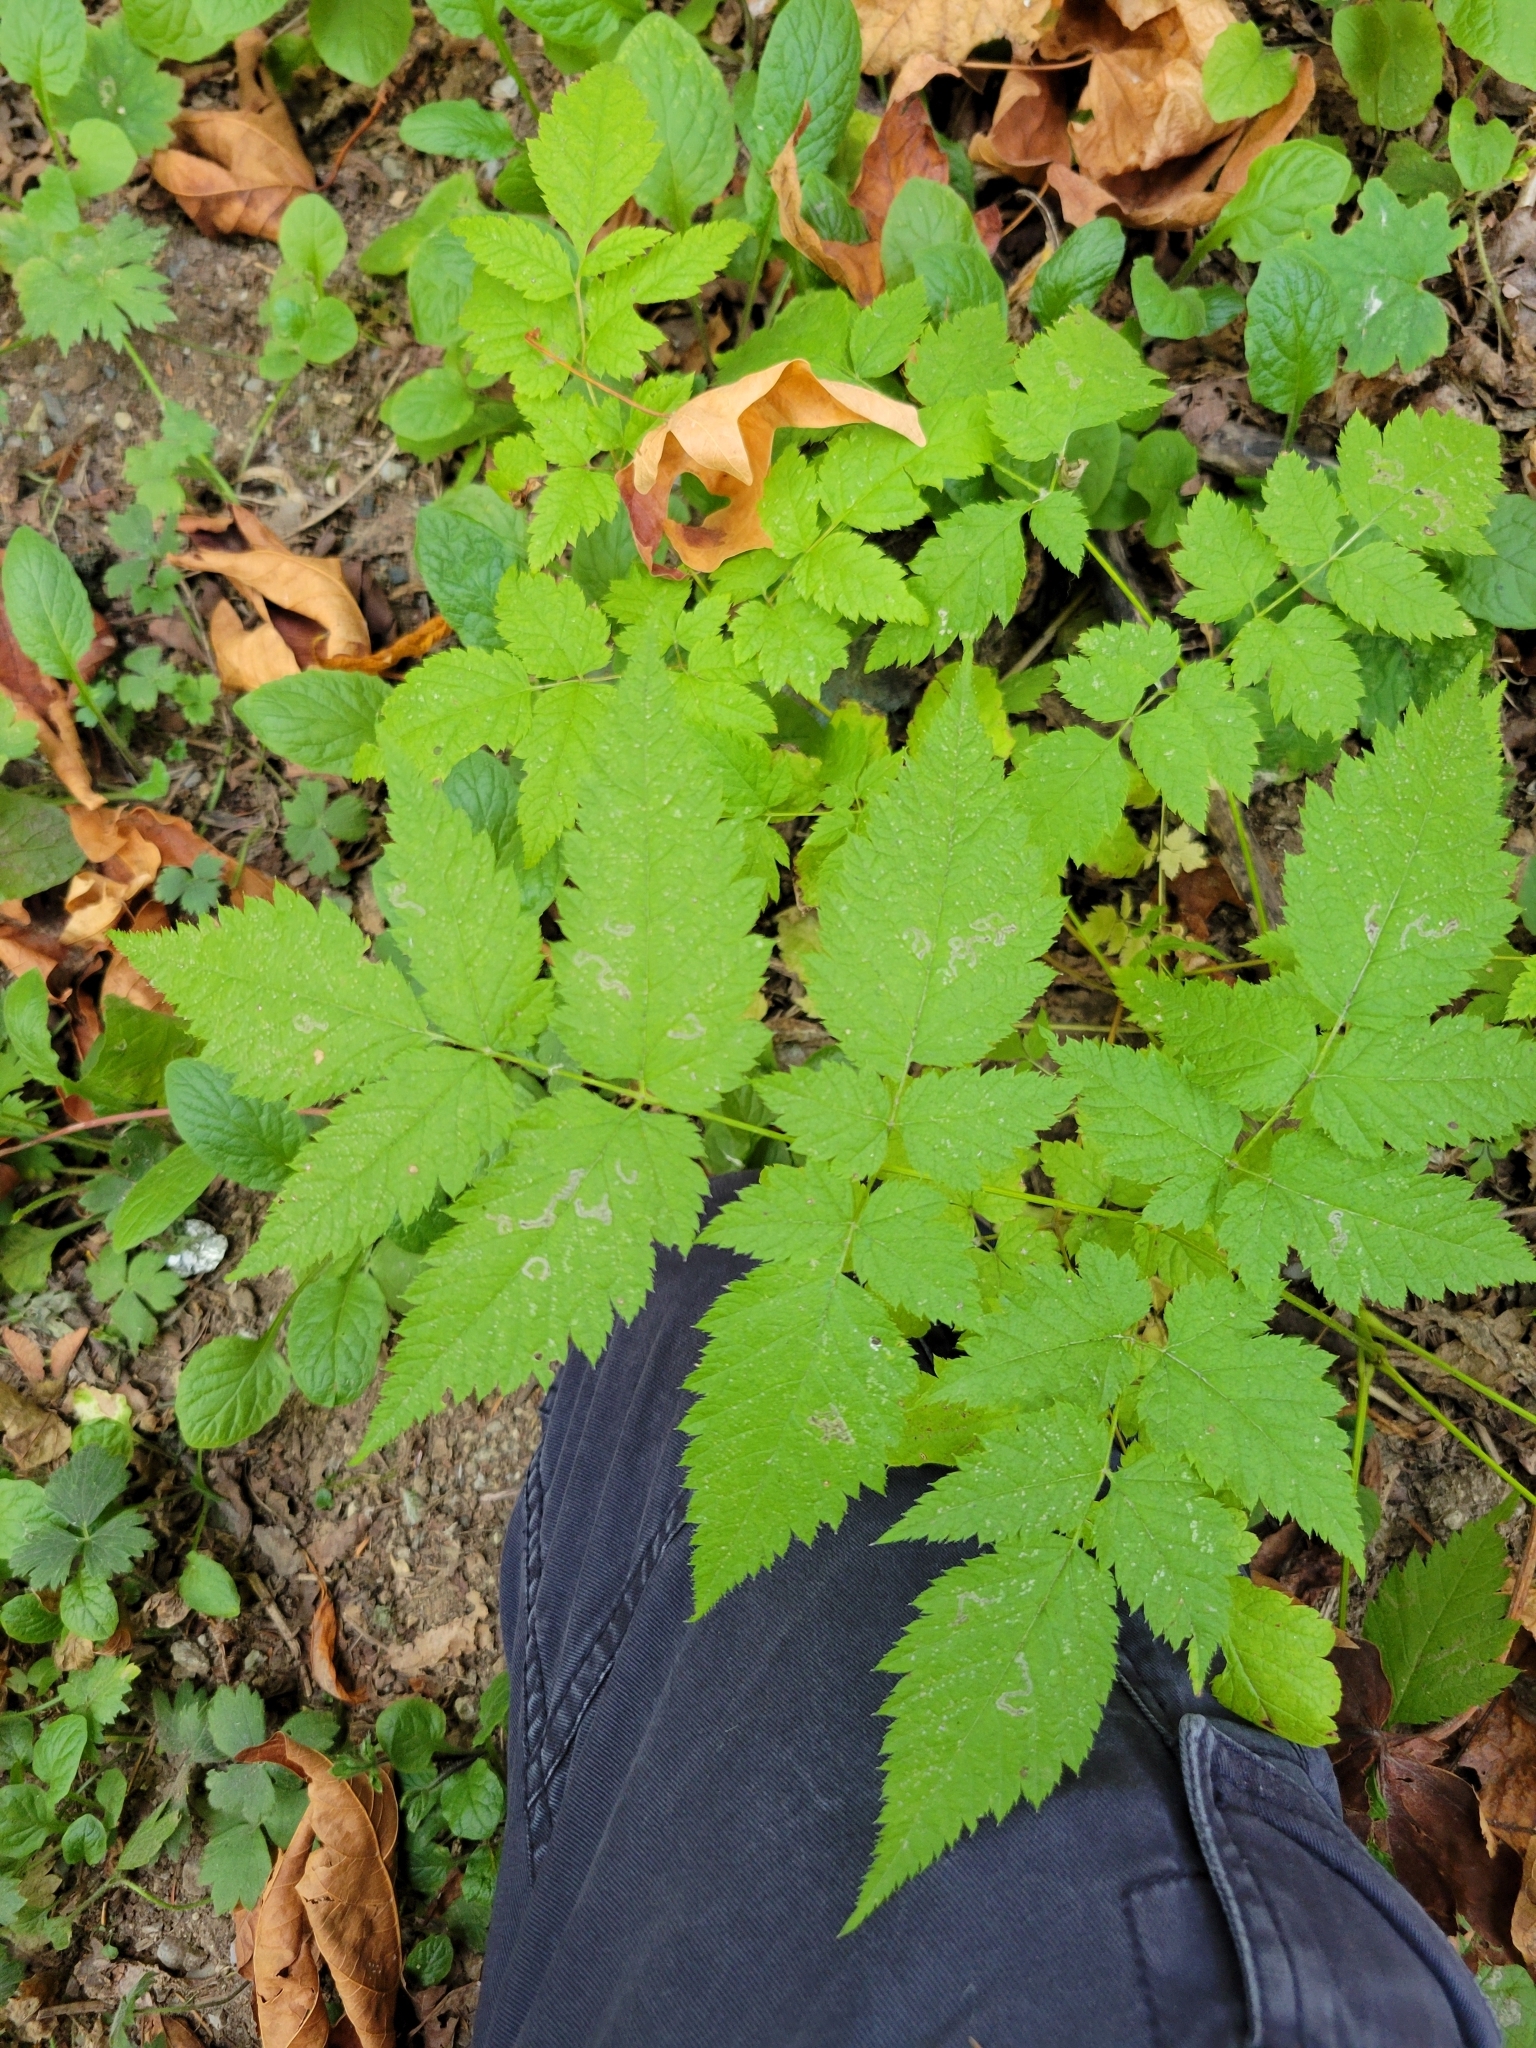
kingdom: Plantae
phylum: Tracheophyta
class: Magnoliopsida
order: Rosales
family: Rosaceae
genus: Aruncus
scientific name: Aruncus dioicus
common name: Buck's-beard
